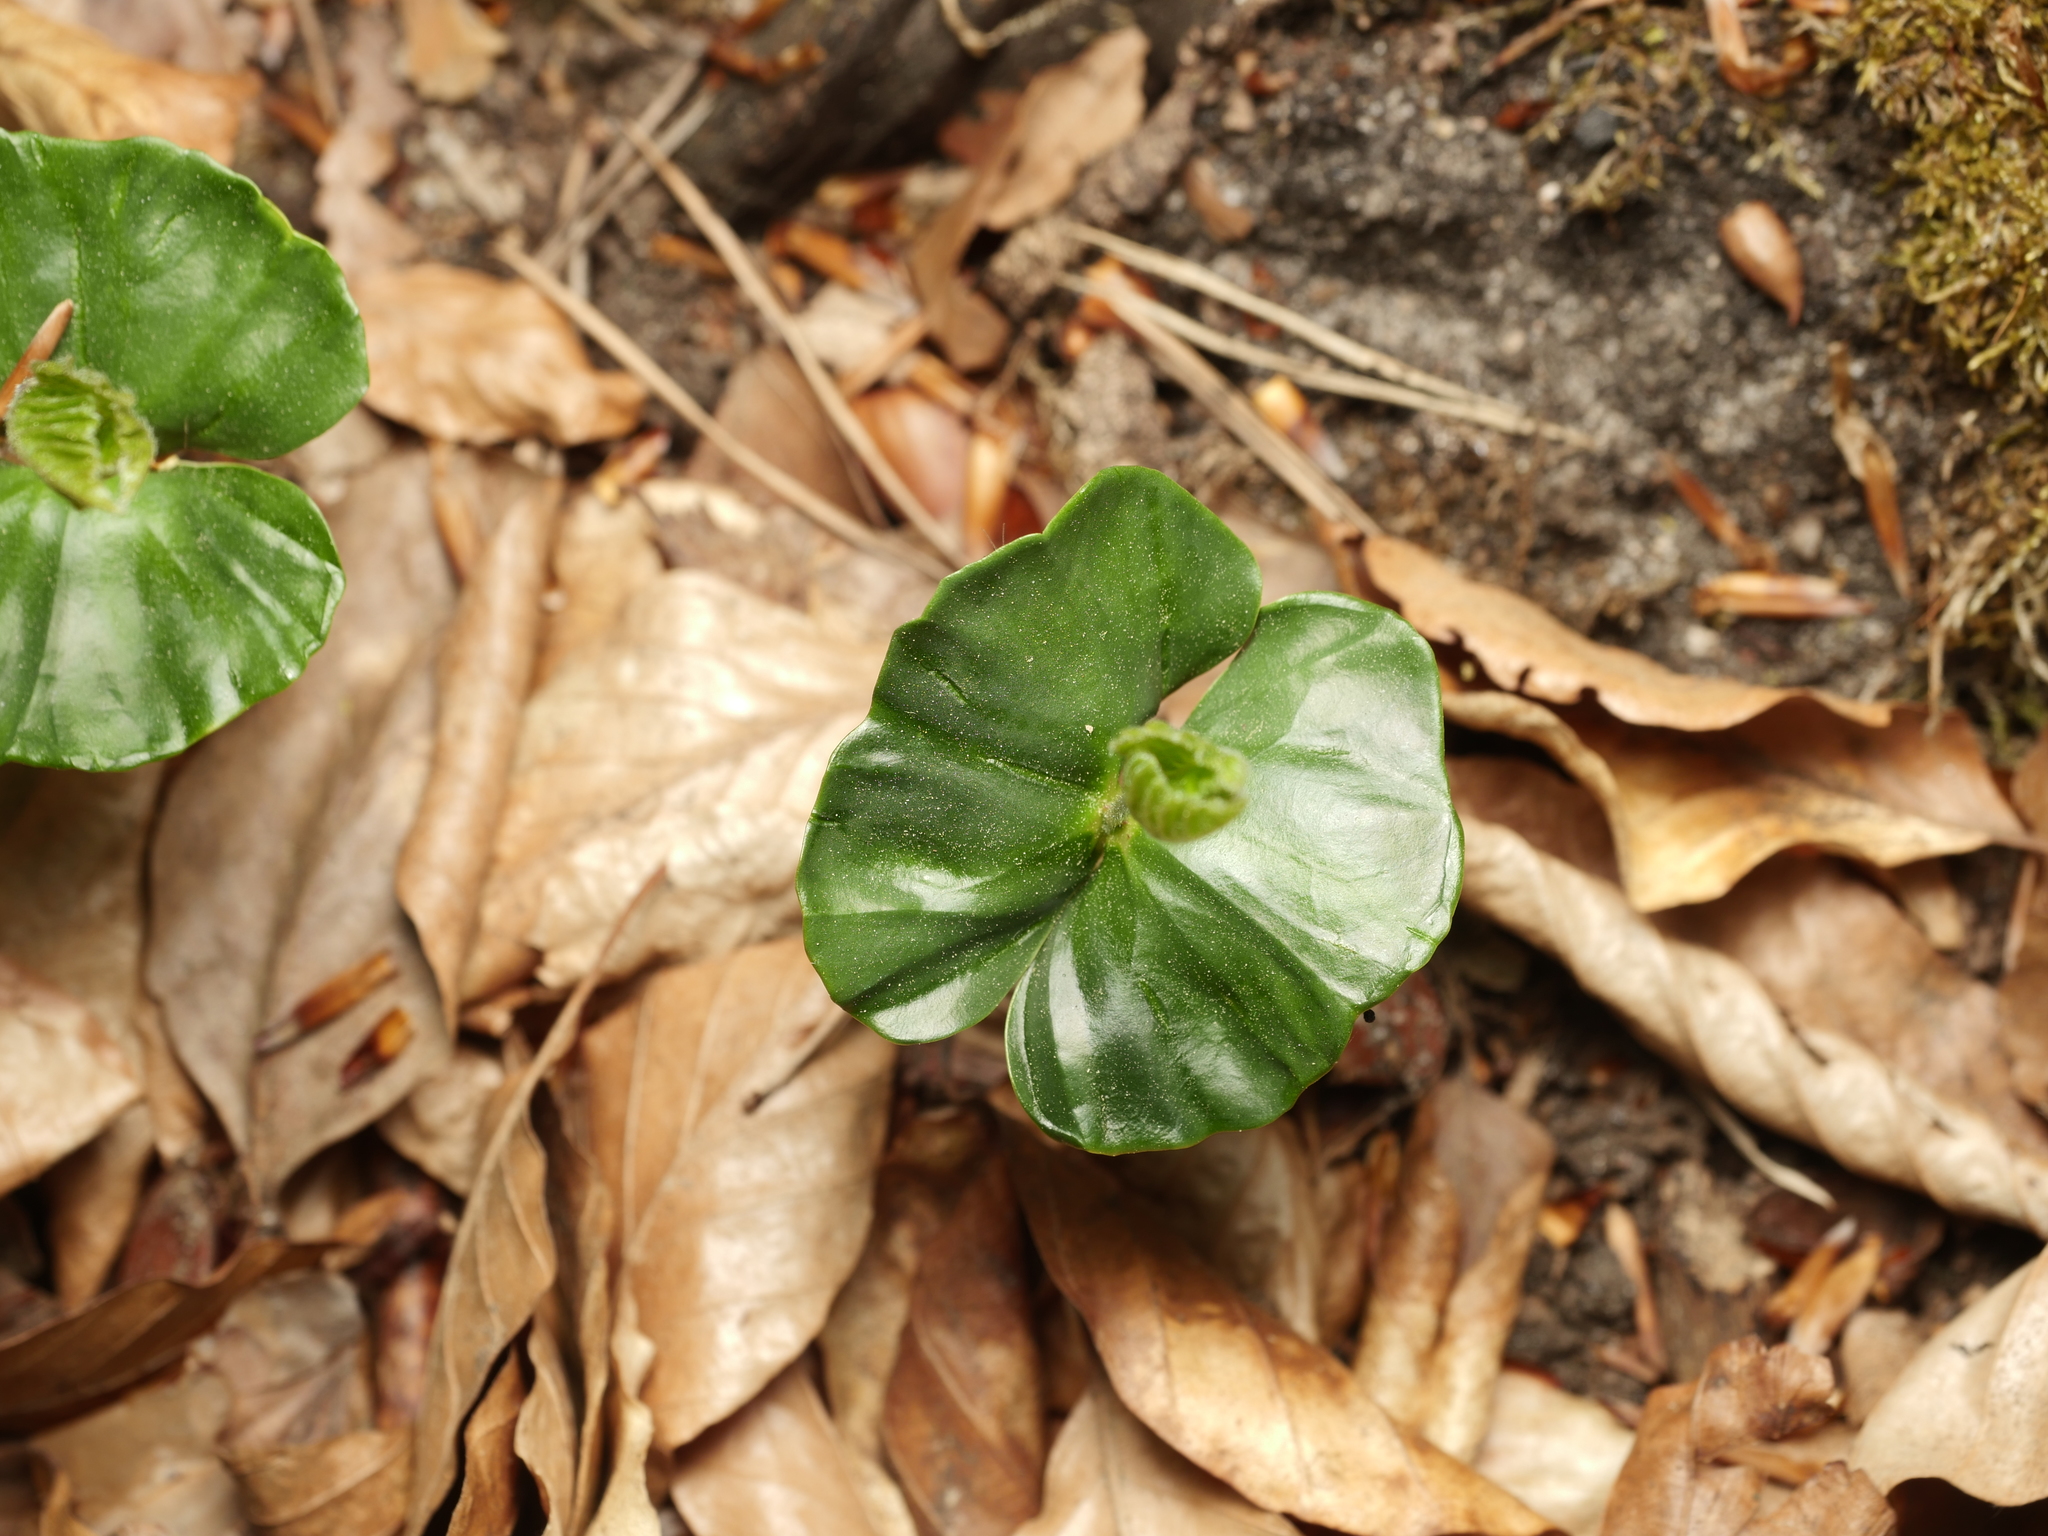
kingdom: Plantae
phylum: Tracheophyta
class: Magnoliopsida
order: Fagales
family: Fagaceae
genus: Fagus
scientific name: Fagus sylvatica
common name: Beech
